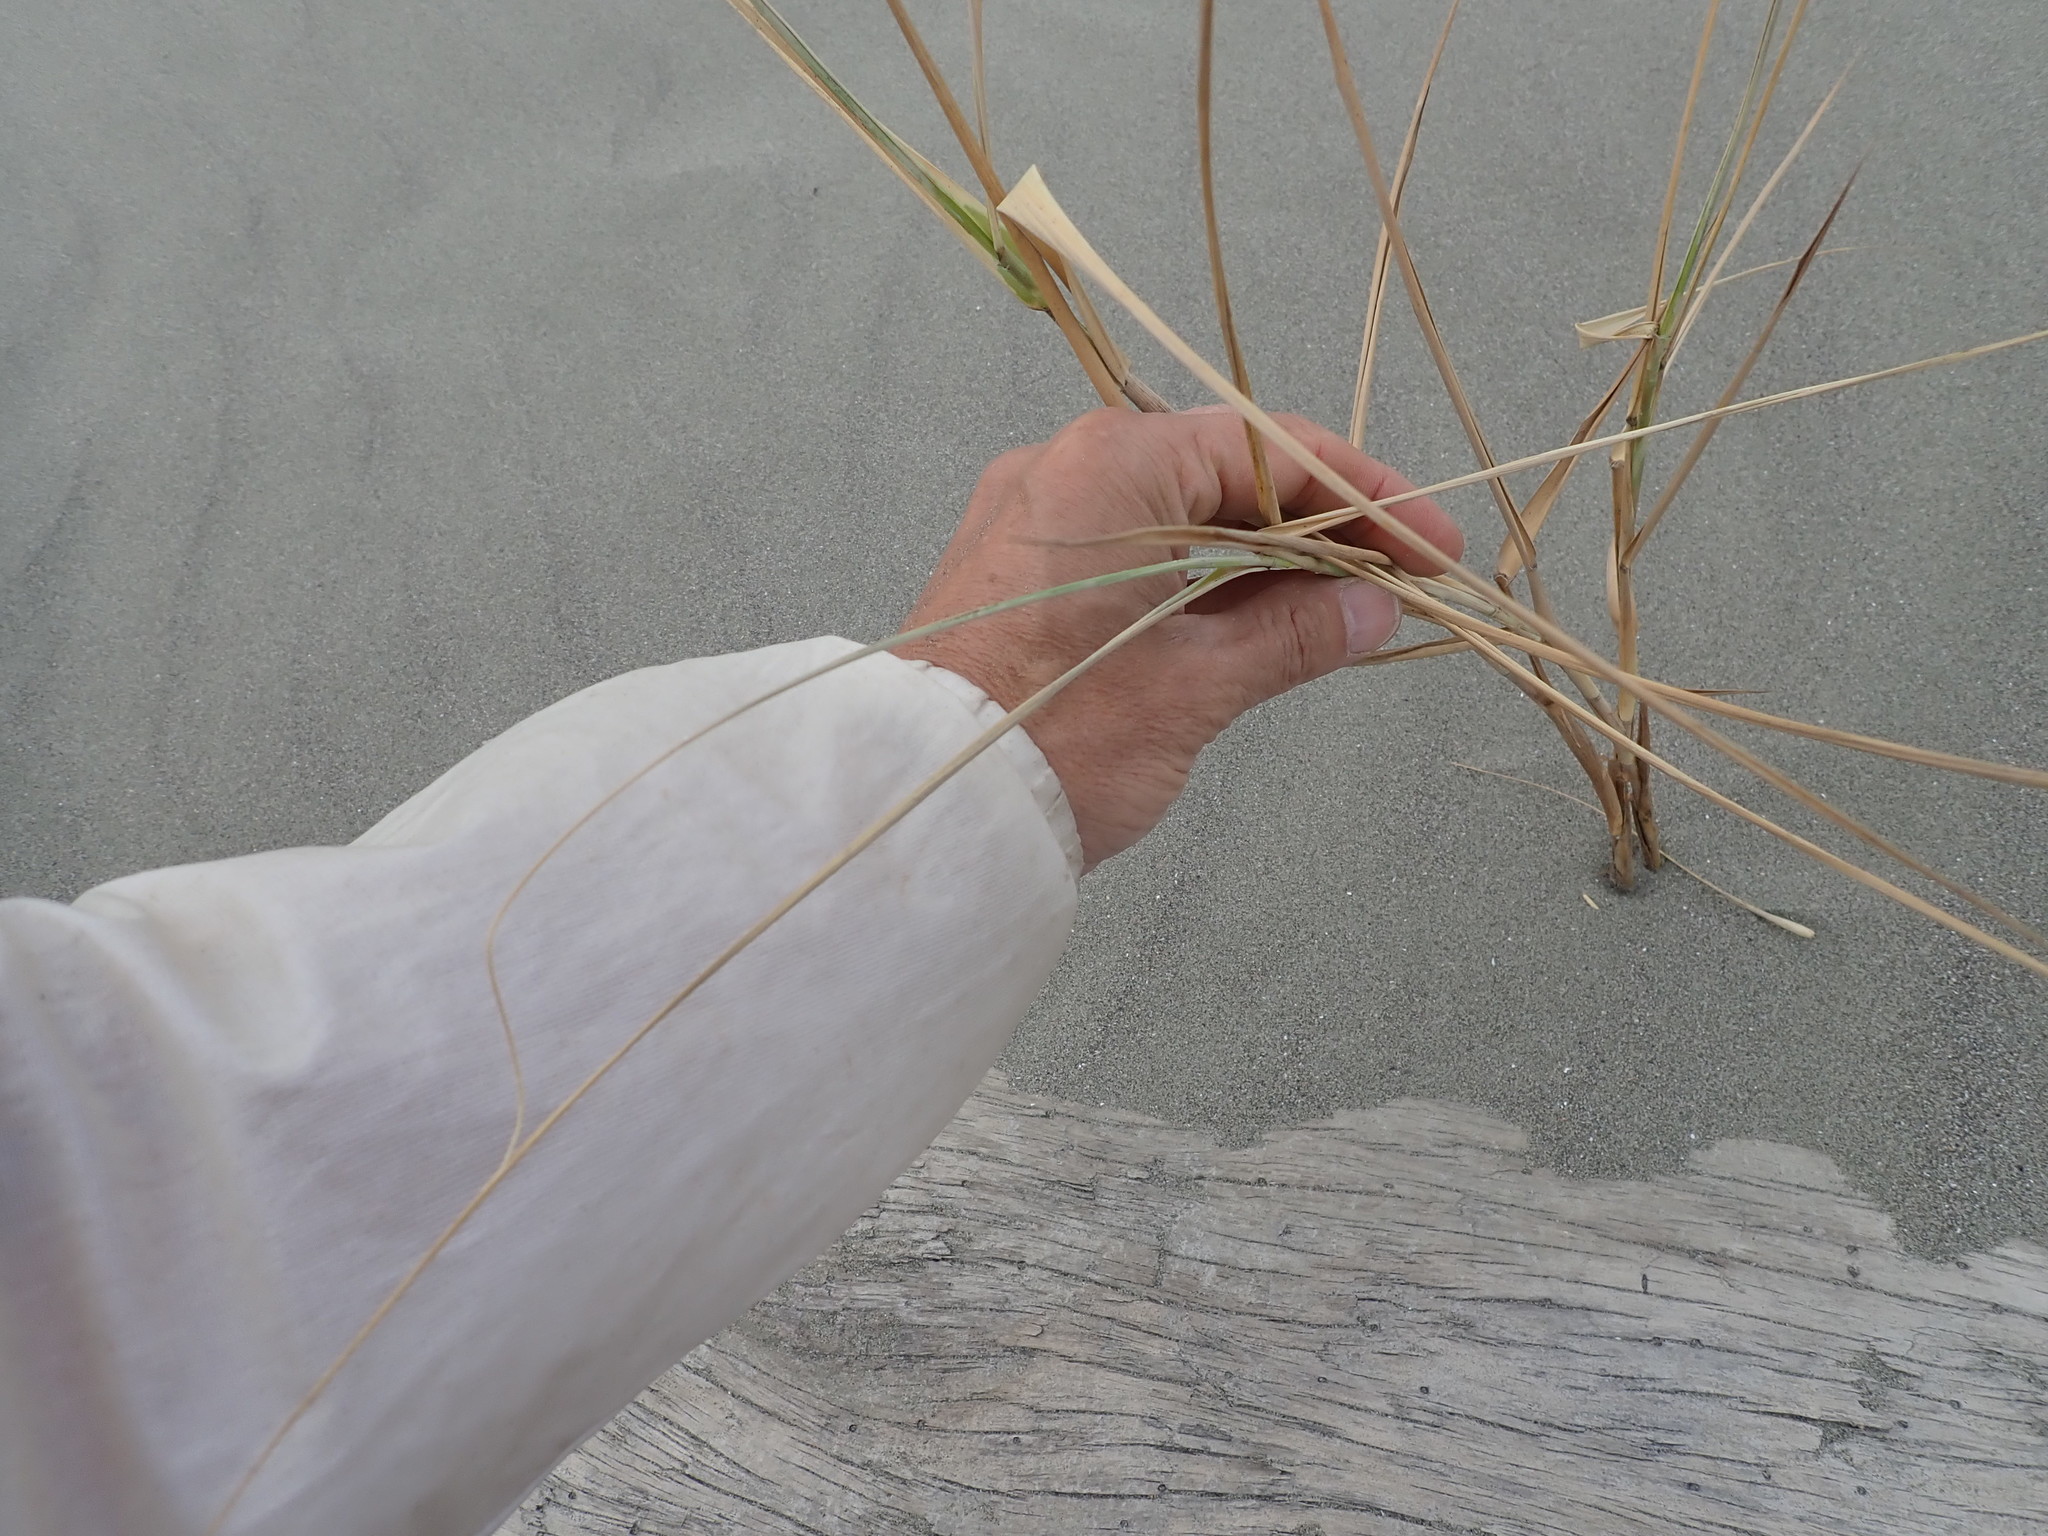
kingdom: Plantae
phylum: Tracheophyta
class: Liliopsida
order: Poales
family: Poaceae
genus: Phragmites
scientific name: Phragmites karka
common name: Tropical reed
